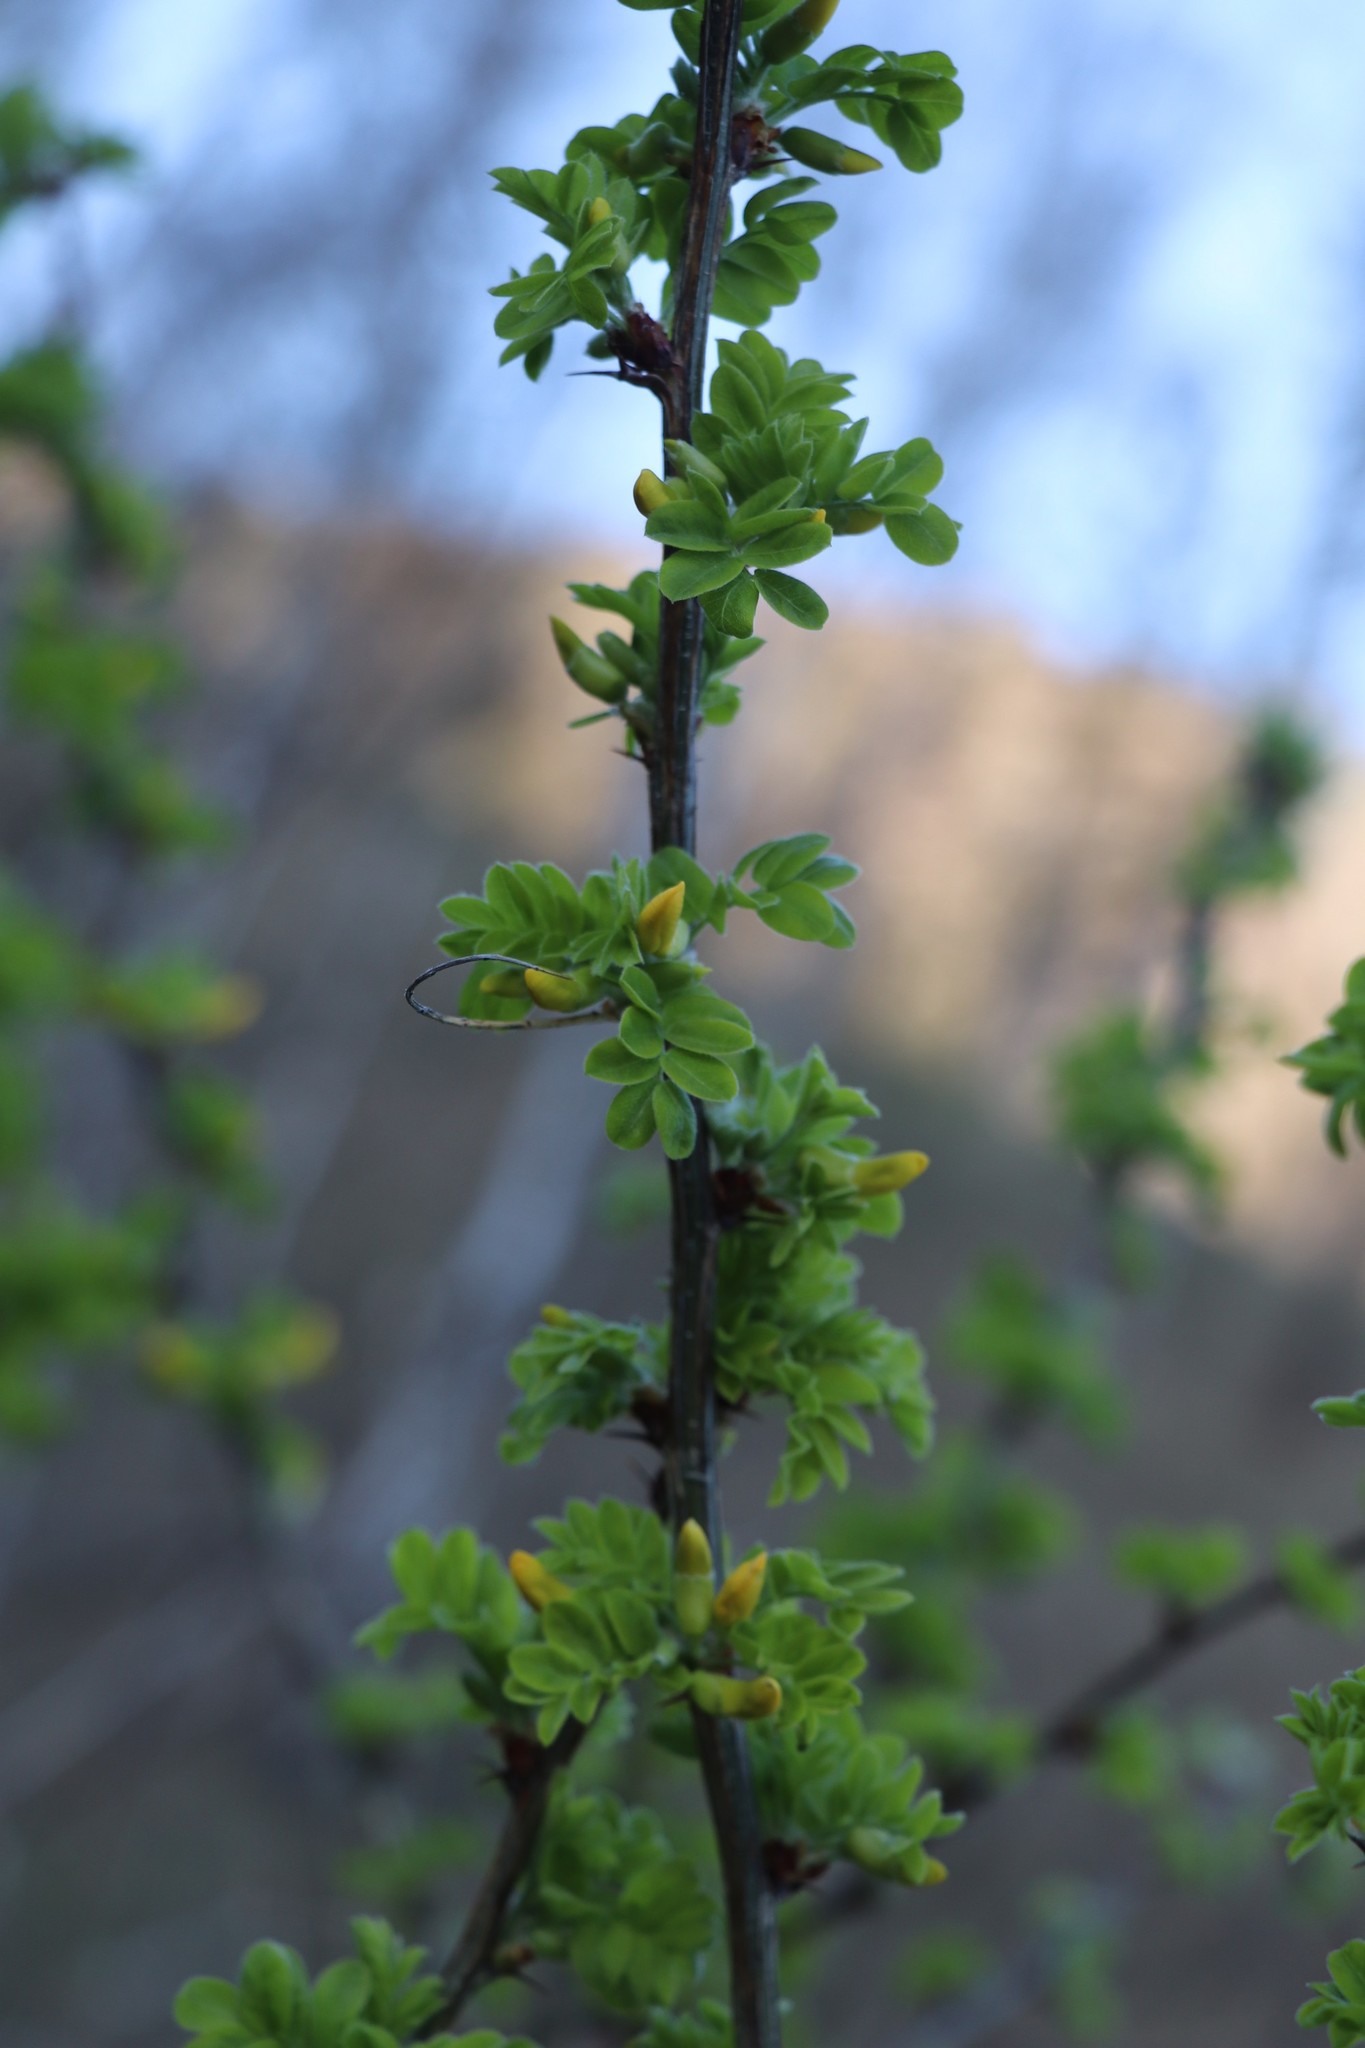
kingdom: Plantae
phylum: Tracheophyta
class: Magnoliopsida
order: Fabales
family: Fabaceae
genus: Caragana
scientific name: Caragana arborescens
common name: Siberian peashrub
